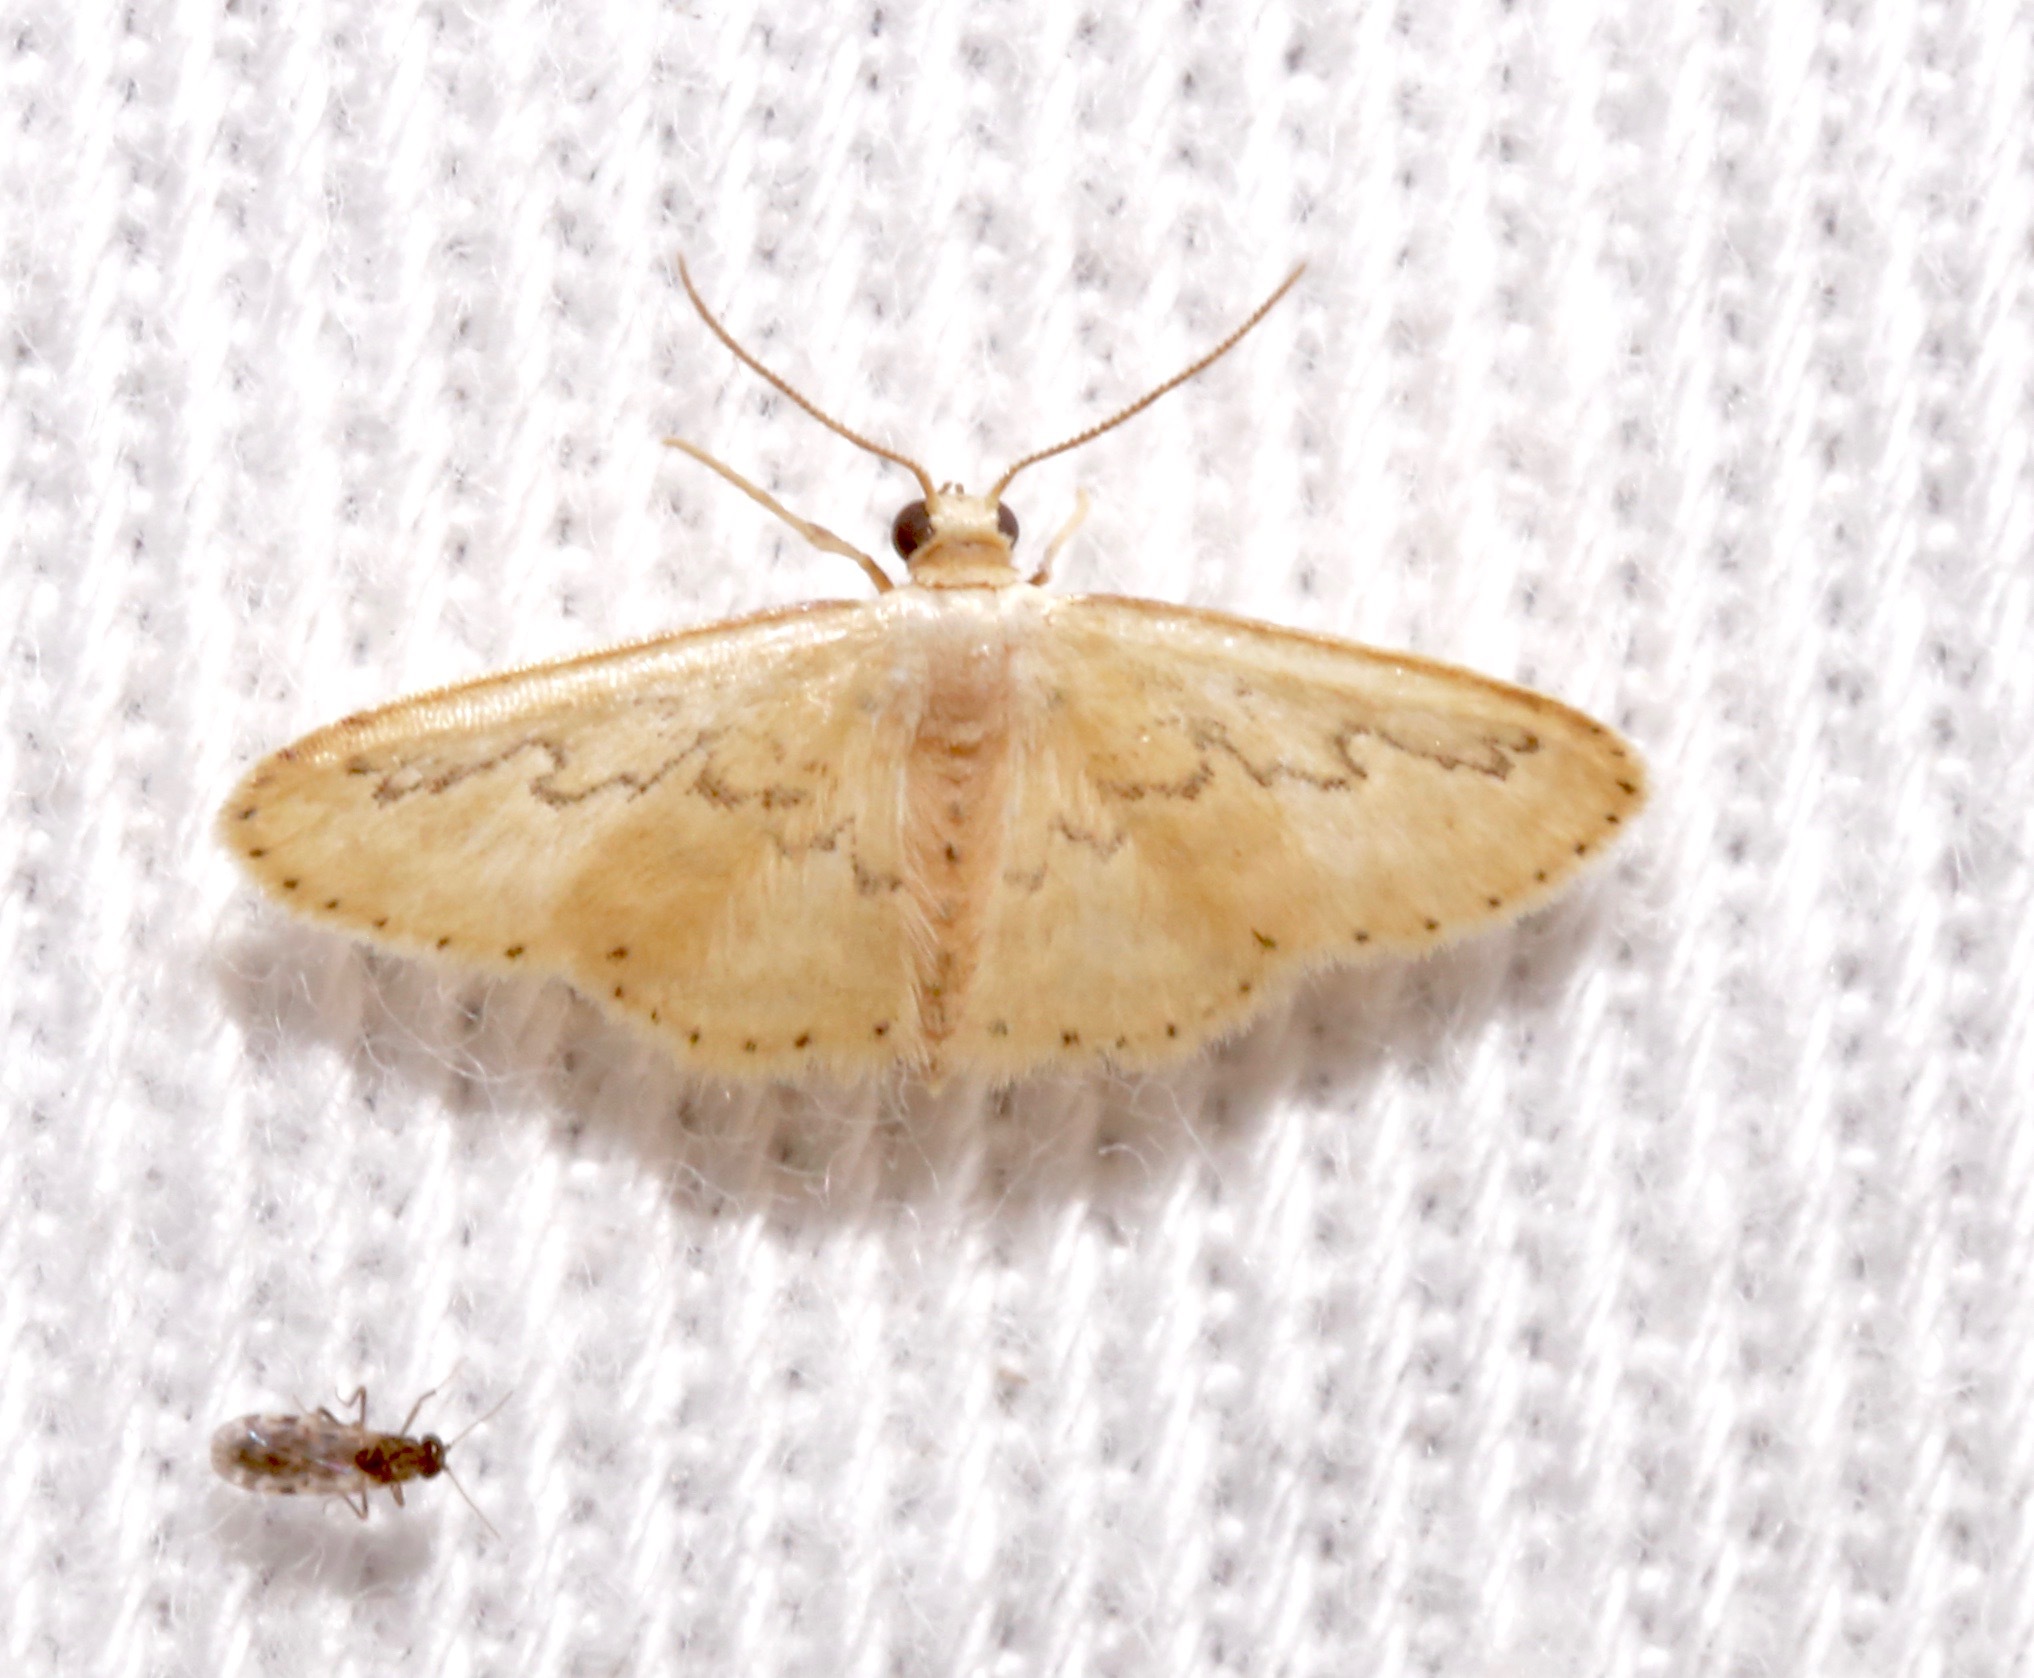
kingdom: Animalia
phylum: Arthropoda
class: Insecta
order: Lepidoptera
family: Geometridae
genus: Idaea
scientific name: Idaea hilliata
